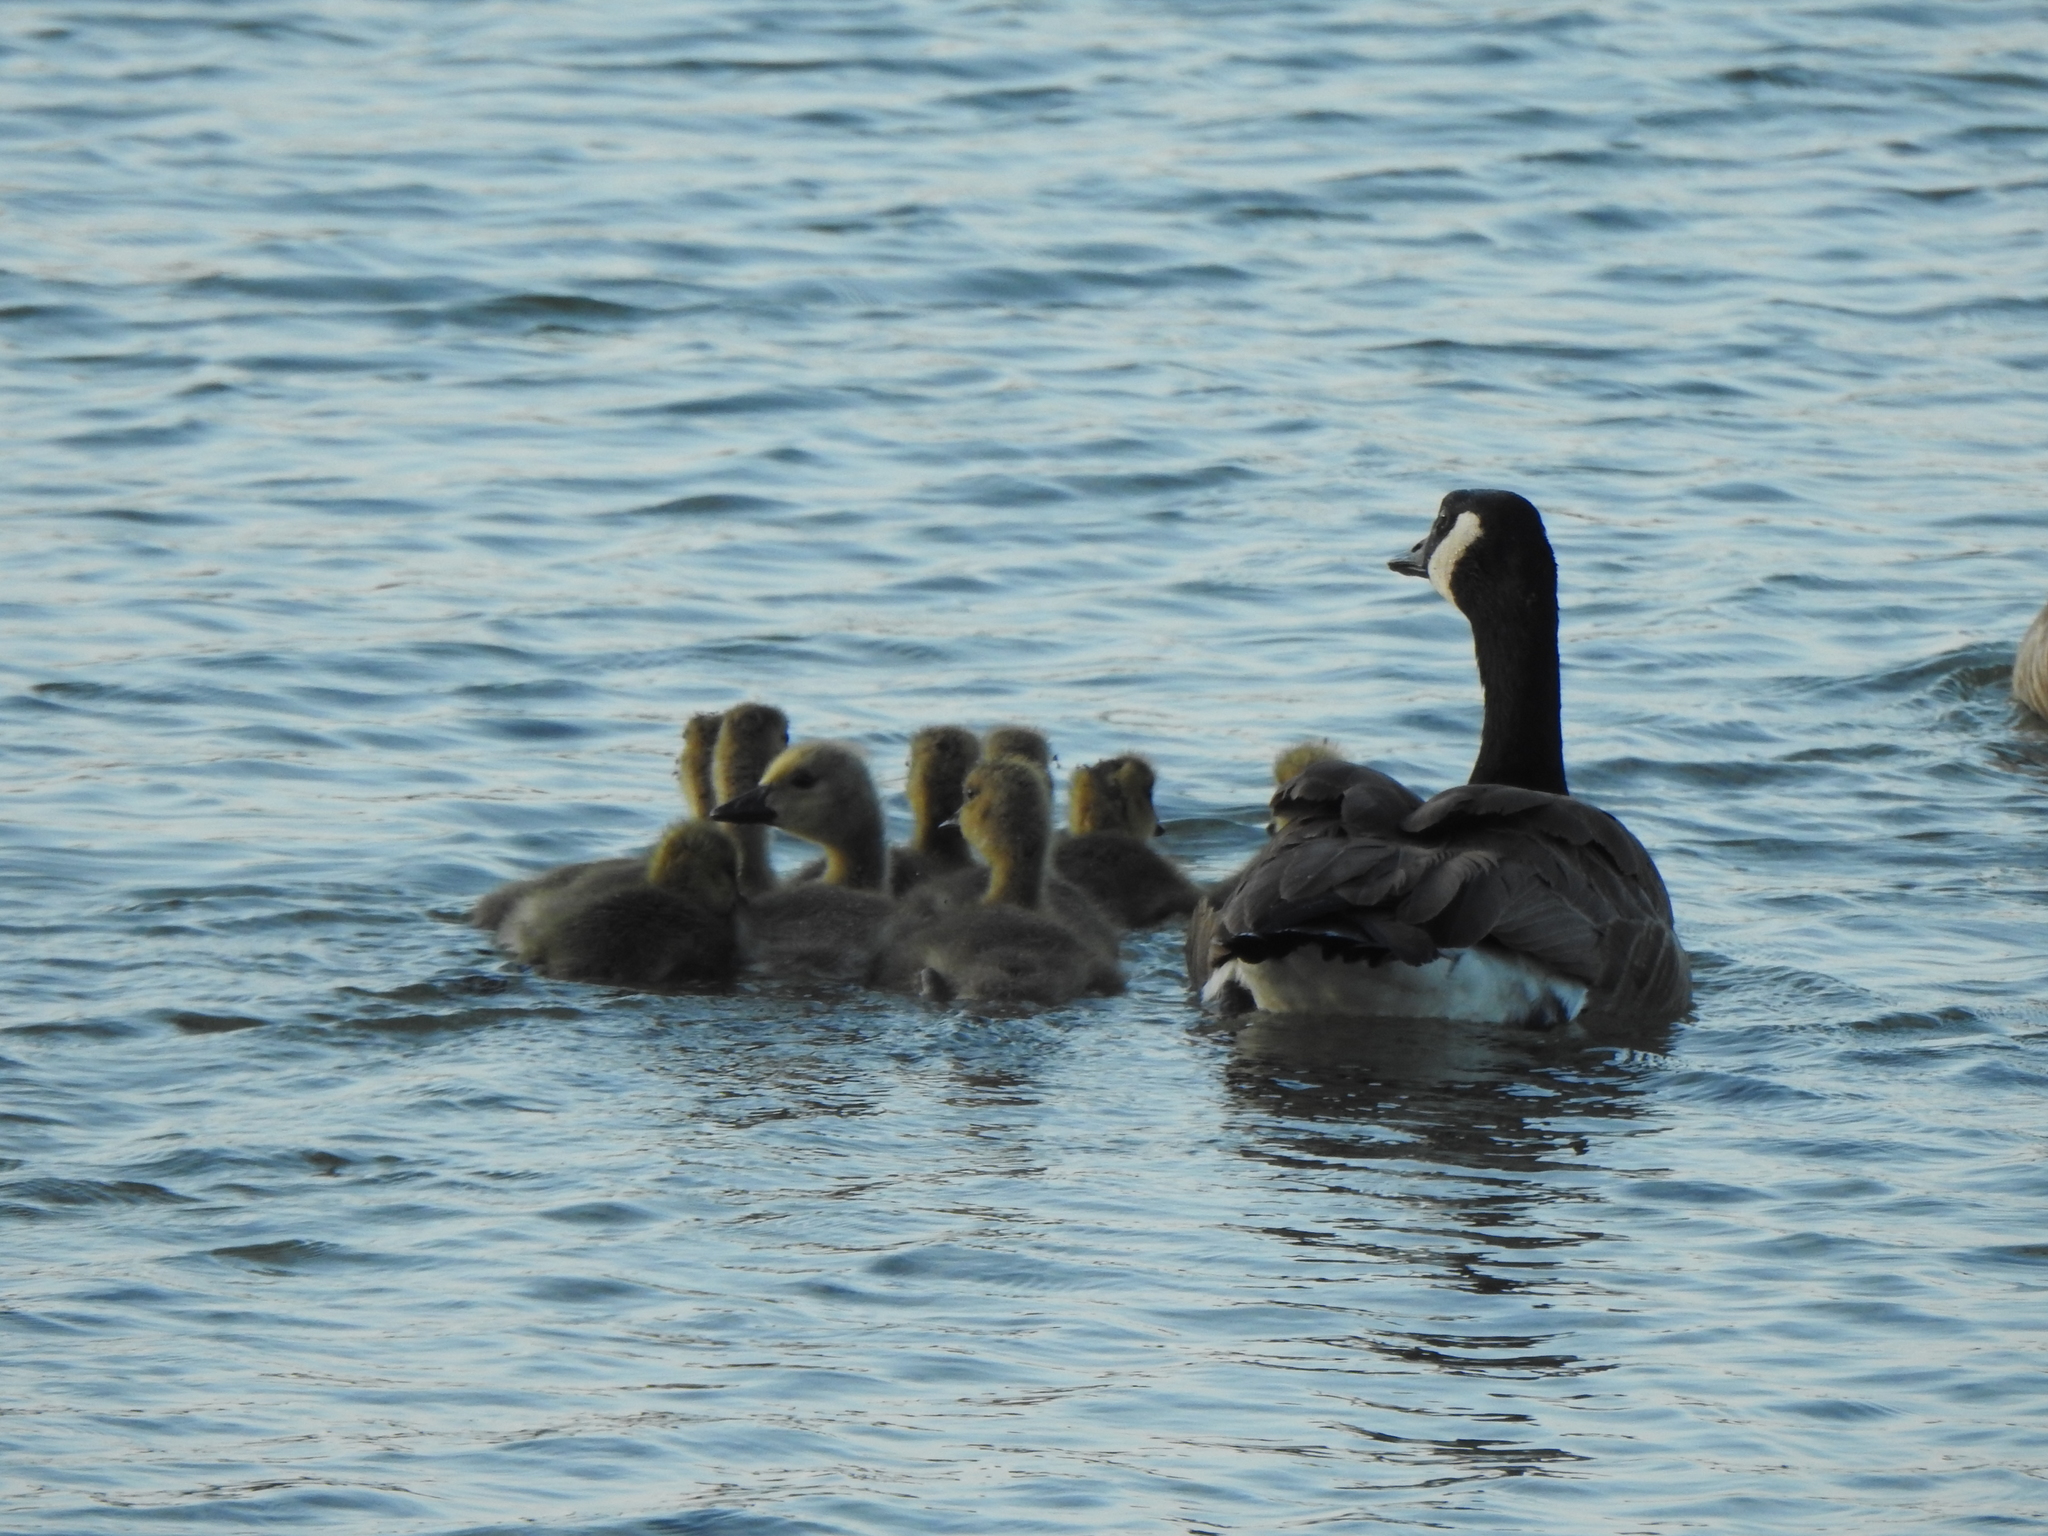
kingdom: Animalia
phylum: Chordata
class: Aves
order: Anseriformes
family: Anatidae
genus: Branta
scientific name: Branta canadensis
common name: Canada goose
